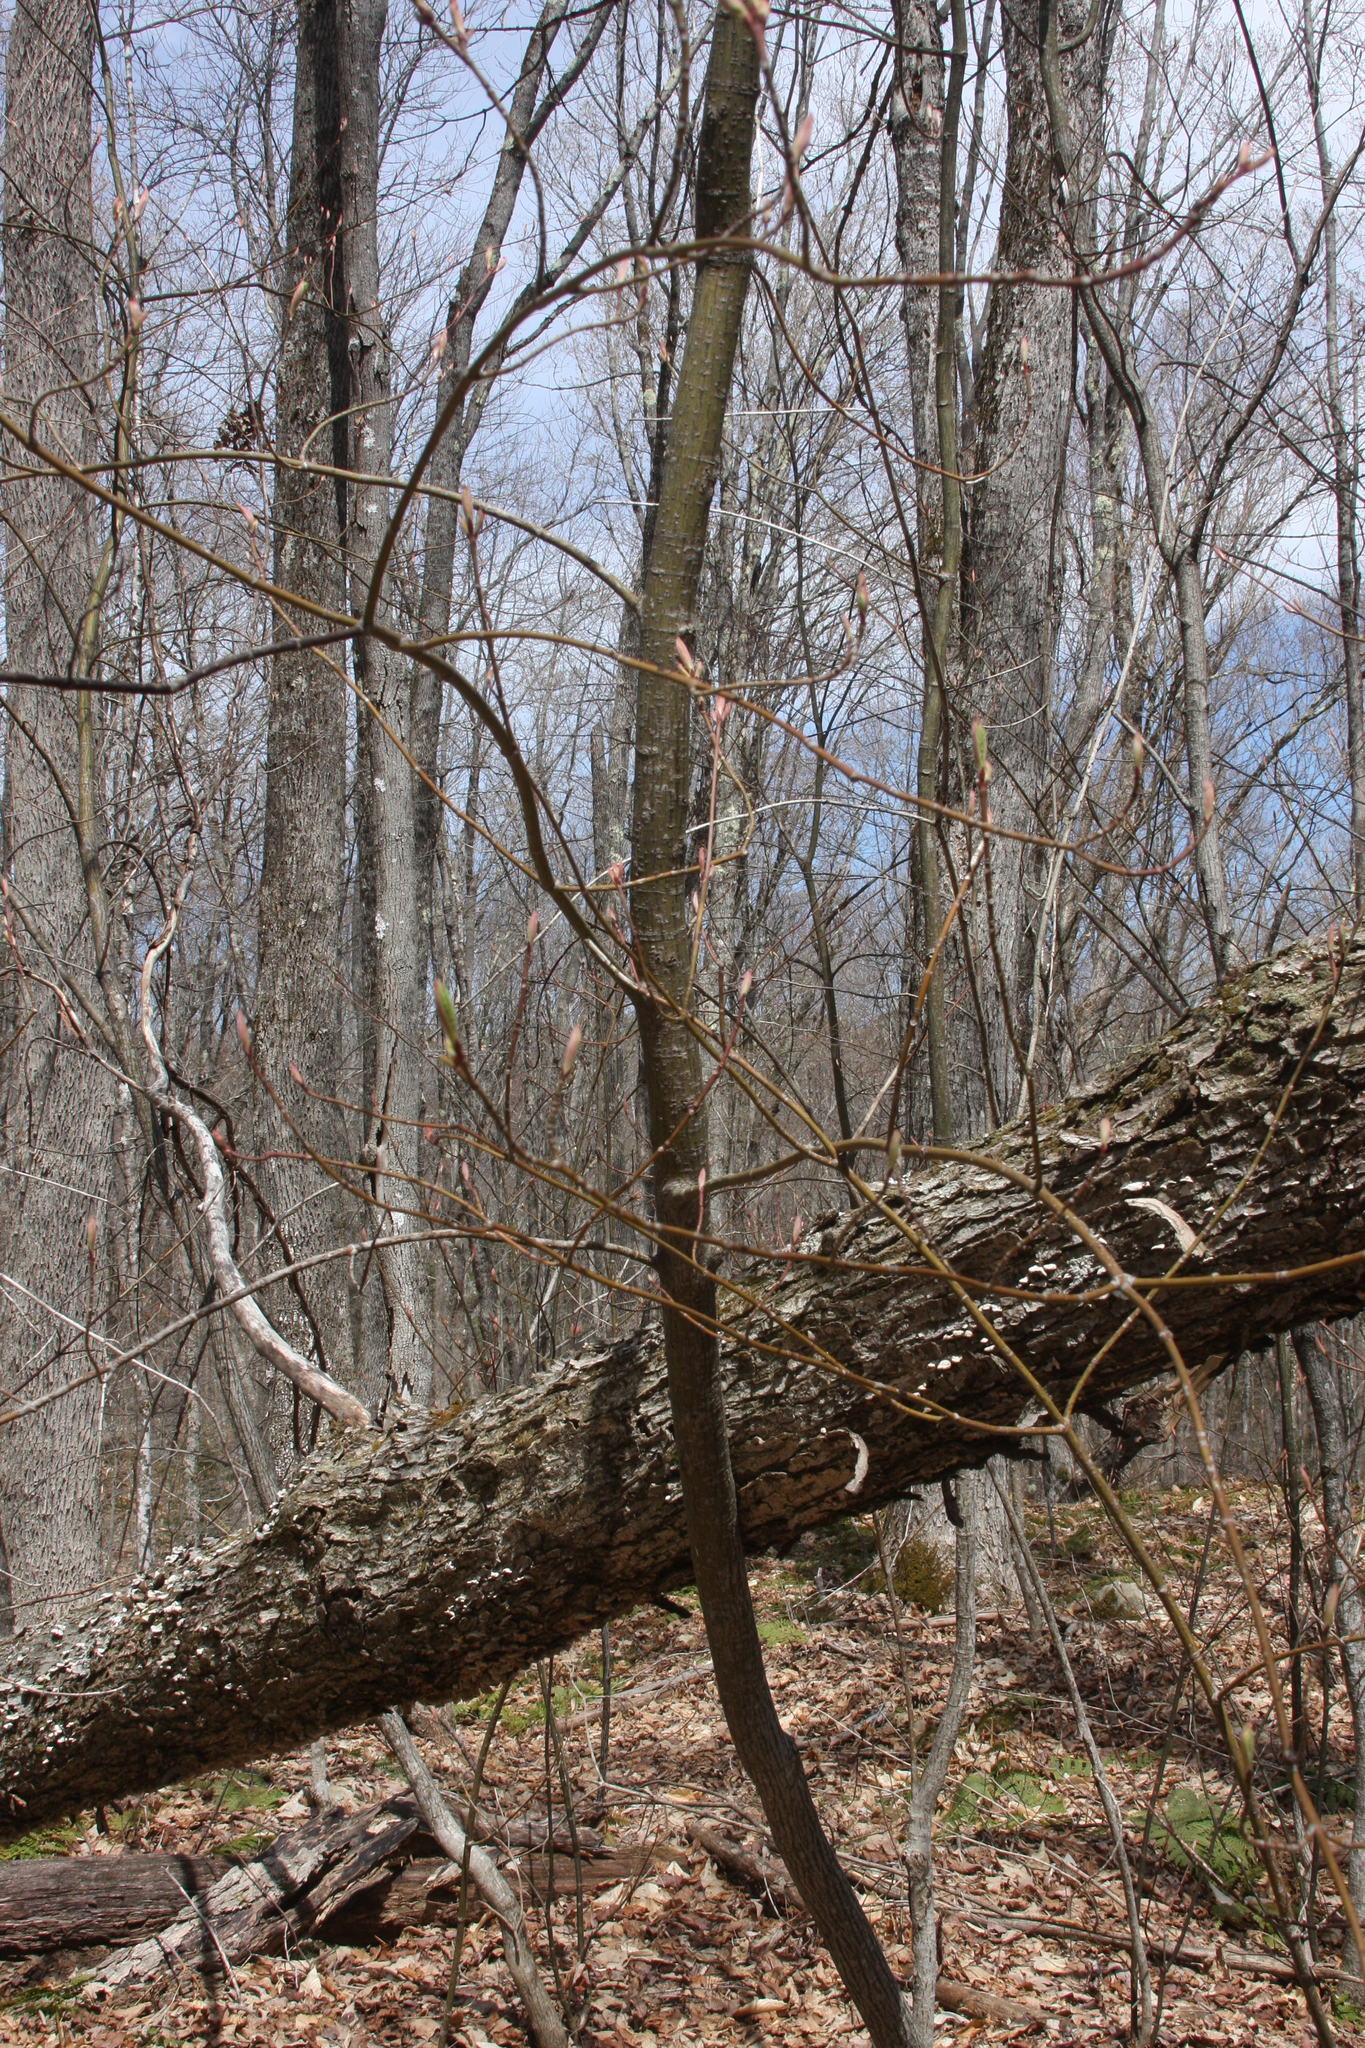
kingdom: Plantae
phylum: Tracheophyta
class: Magnoliopsida
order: Sapindales
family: Sapindaceae
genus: Acer
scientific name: Acer pensylvanicum
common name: Moosewood
